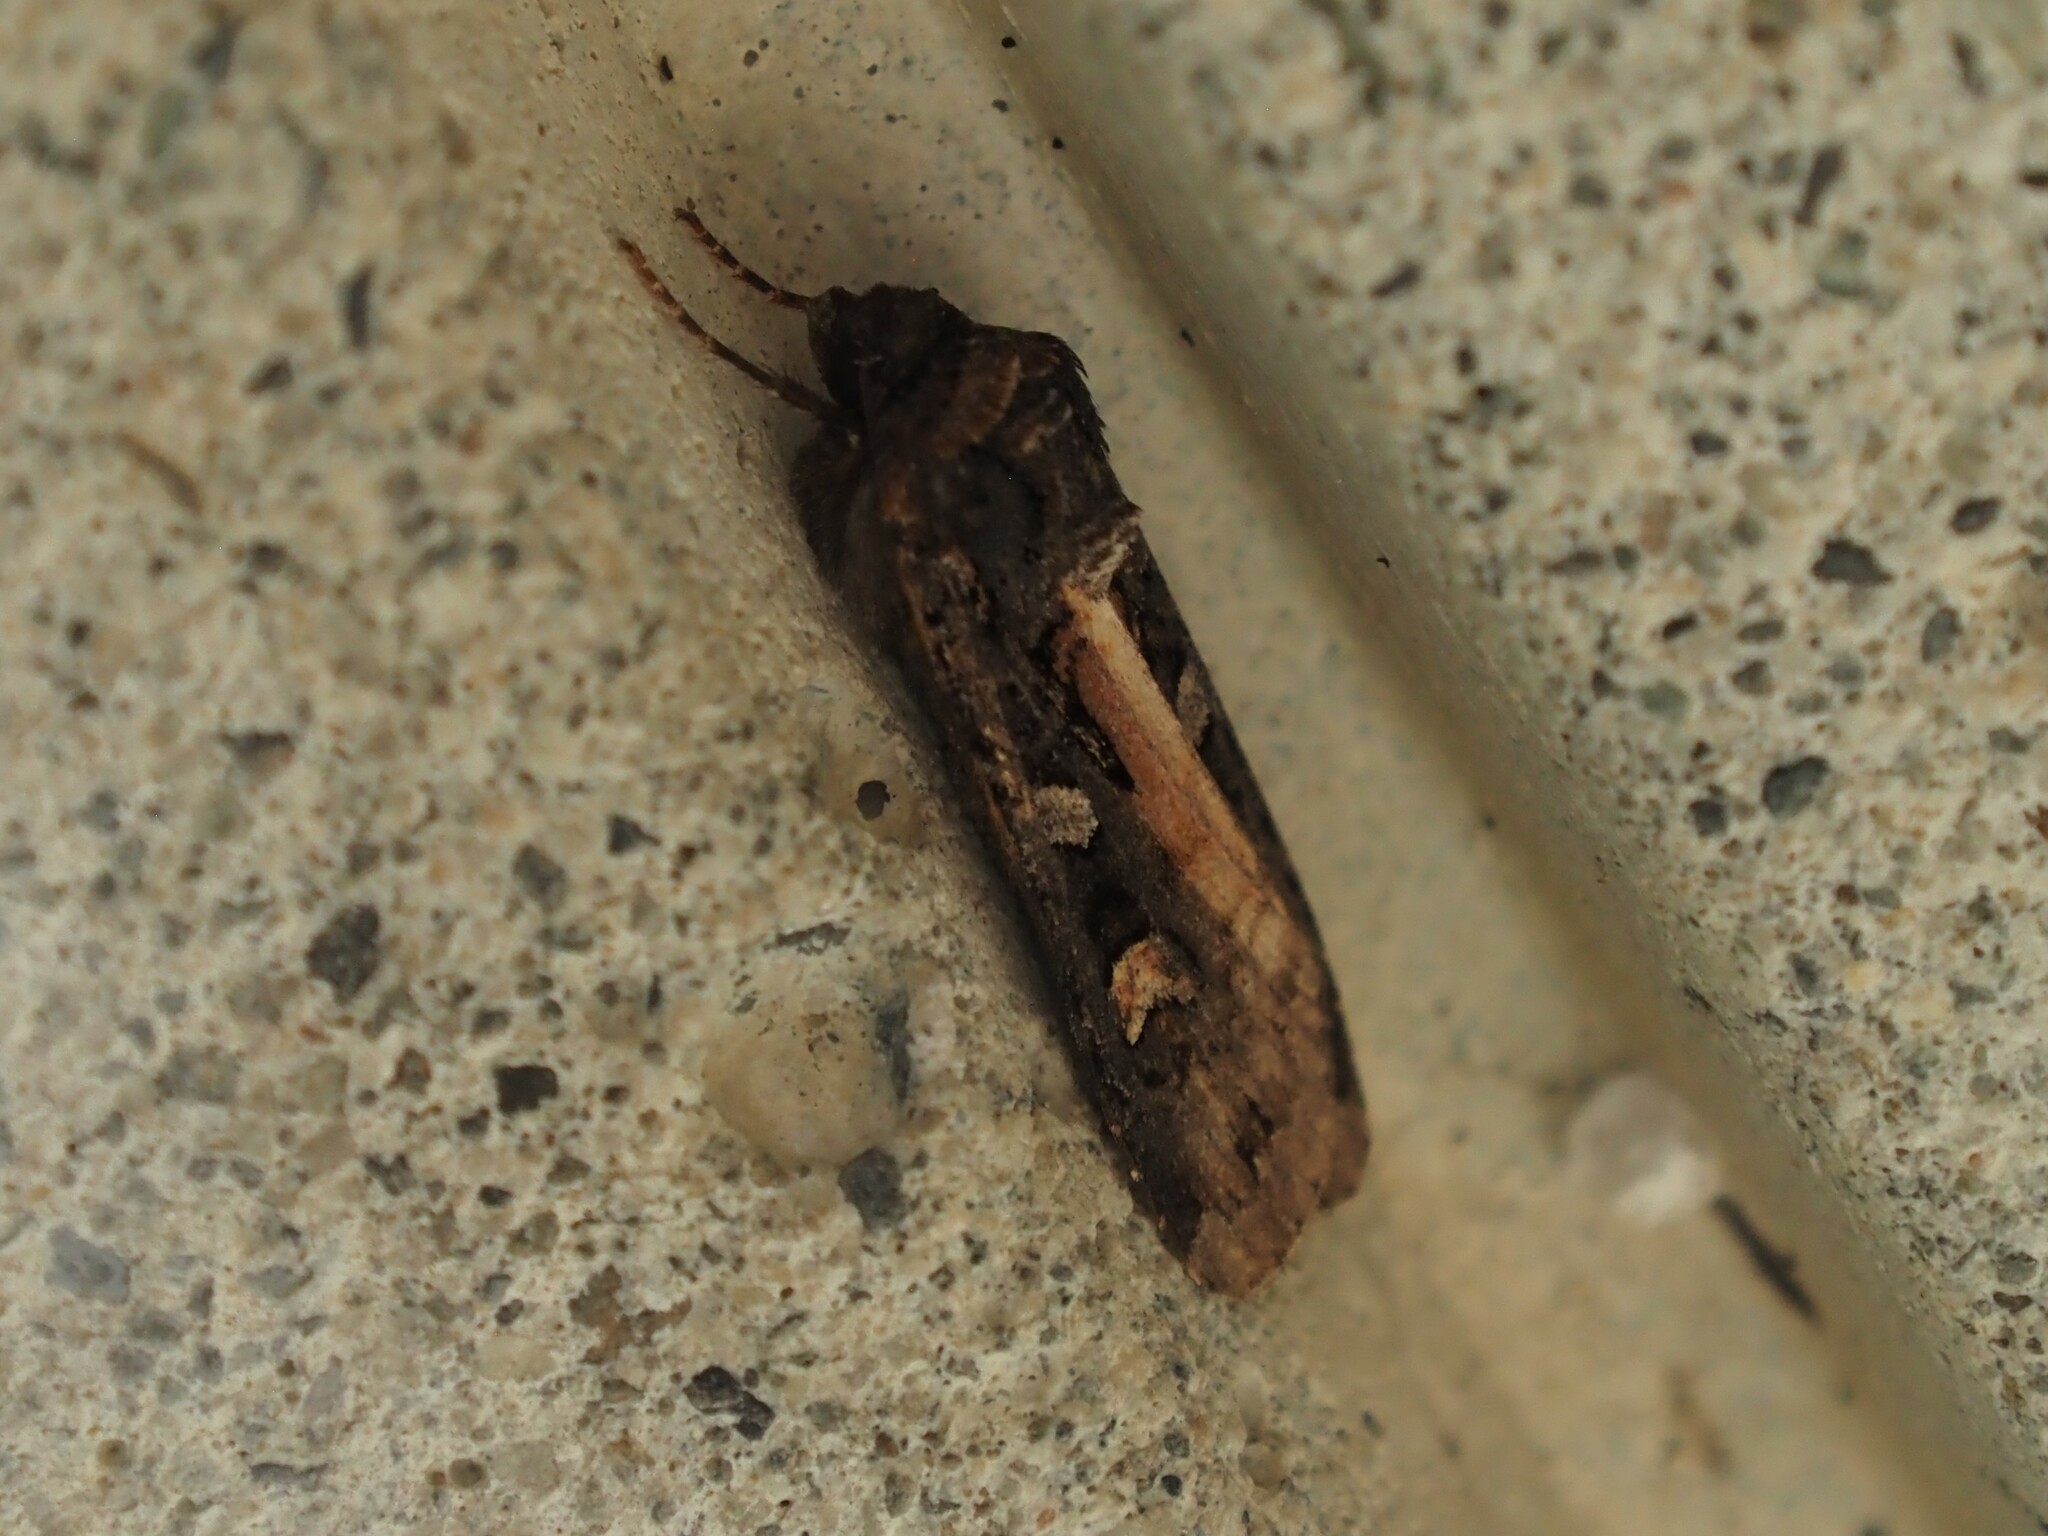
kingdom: Animalia
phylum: Arthropoda
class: Insecta
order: Lepidoptera
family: Noctuidae
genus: Actebia
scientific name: Actebia fennica
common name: Eversmann's rustic
